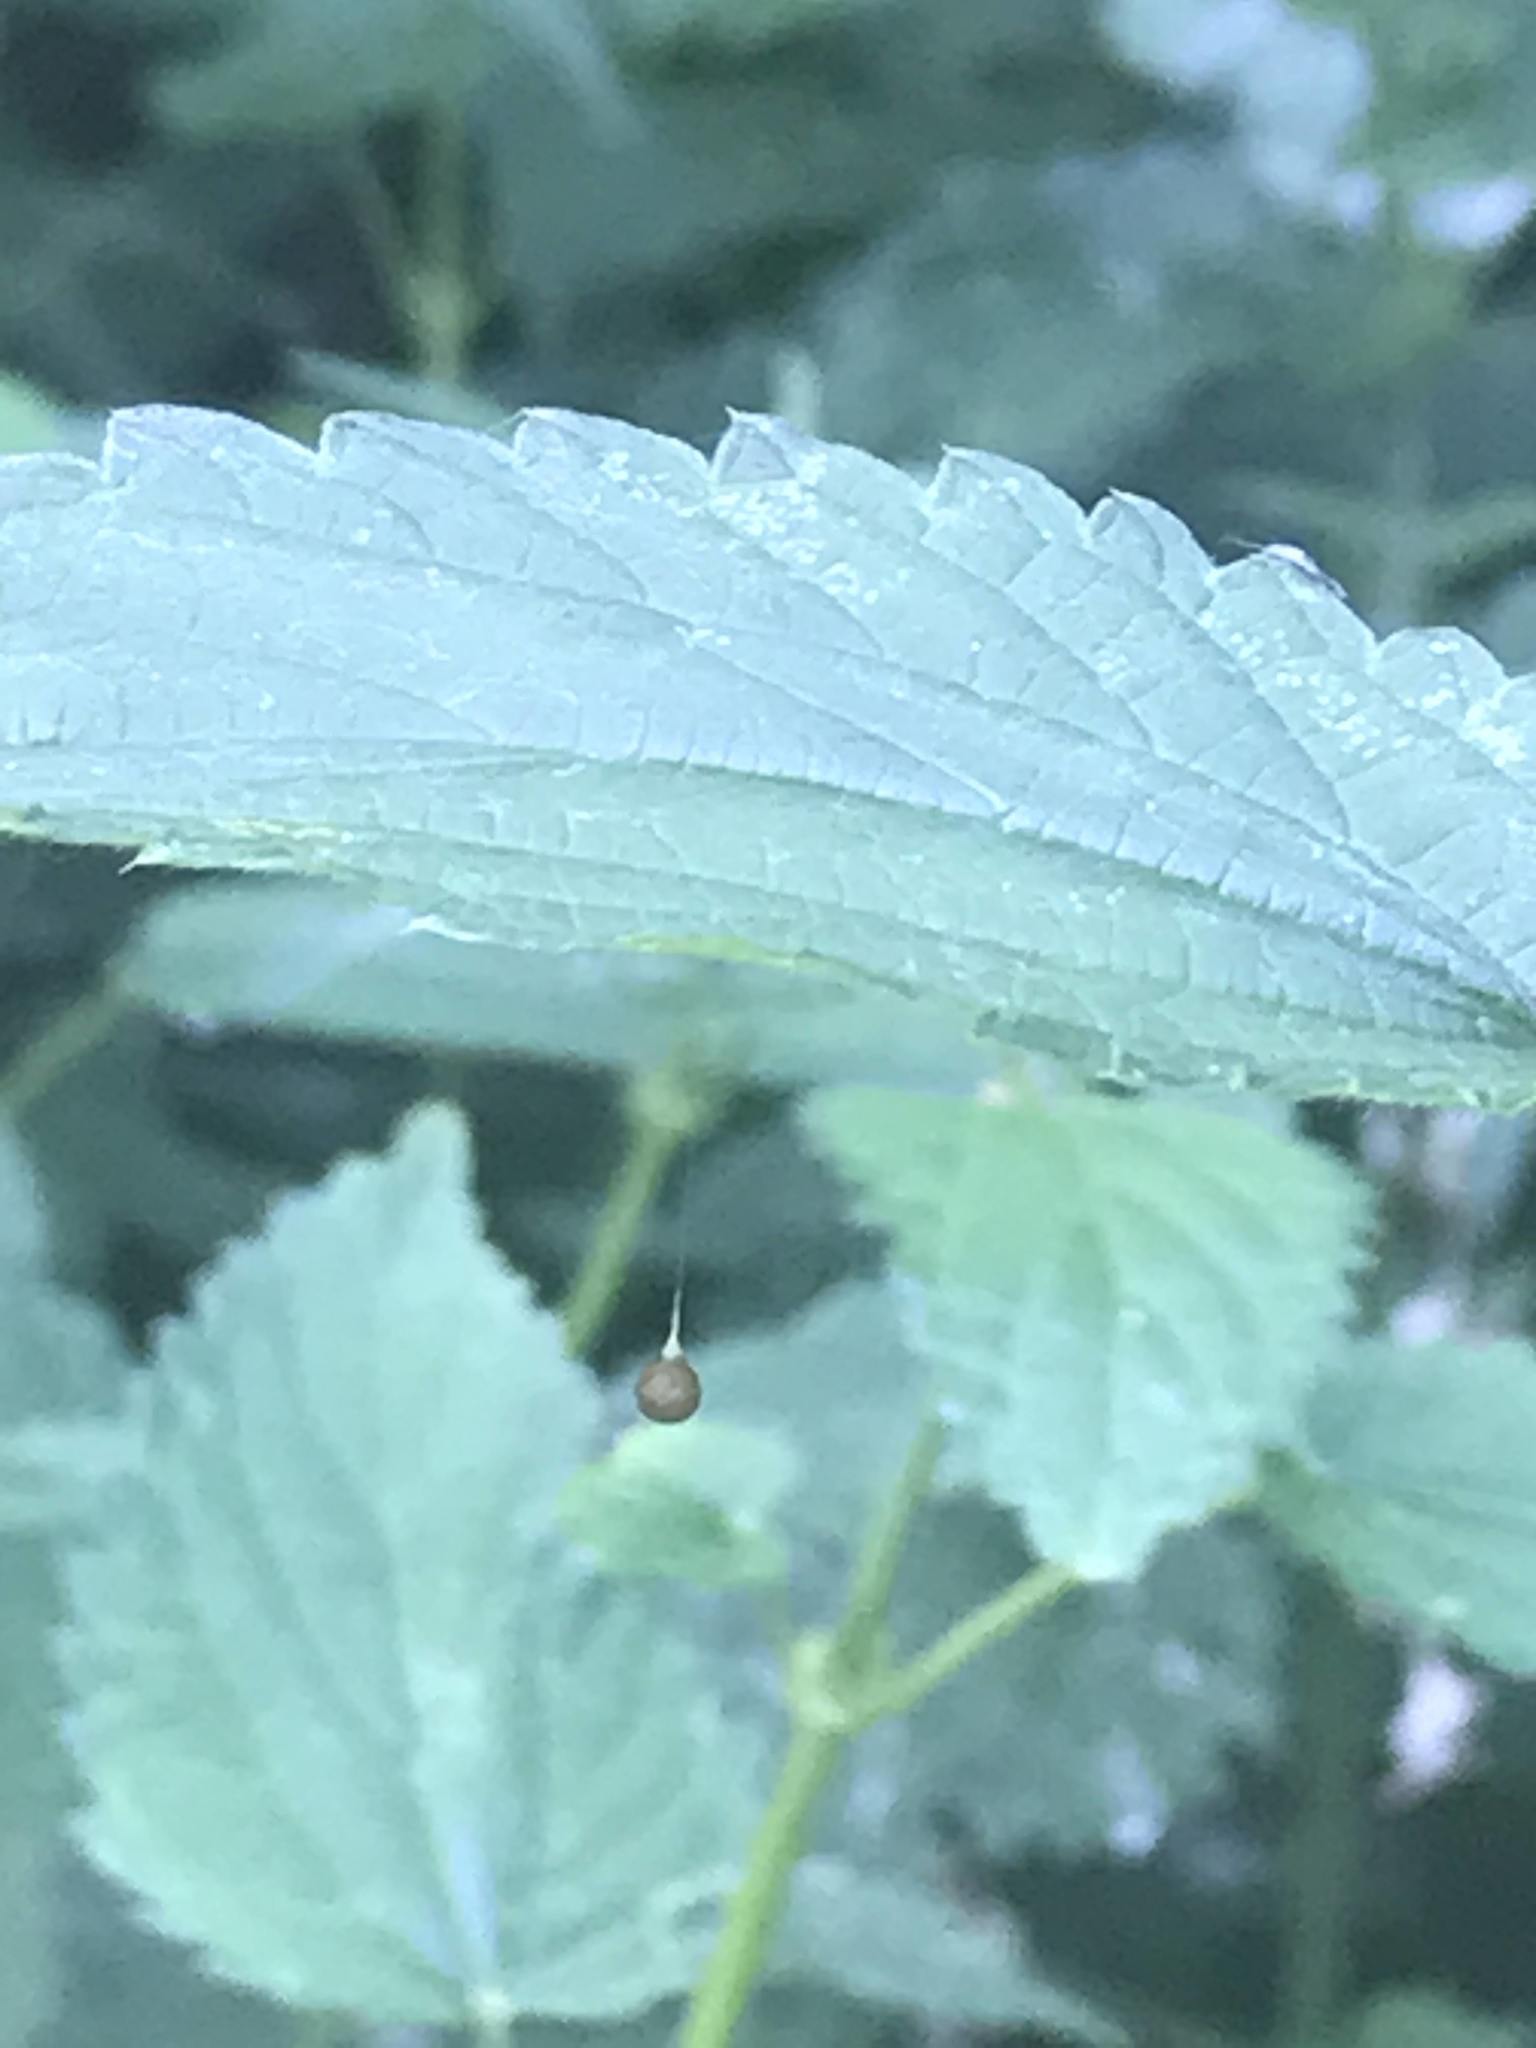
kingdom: Animalia
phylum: Arthropoda
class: Arachnida
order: Araneae
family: Theridiosomatidae
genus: Theridiosoma
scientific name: Theridiosoma gemmosum
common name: Ray spider
